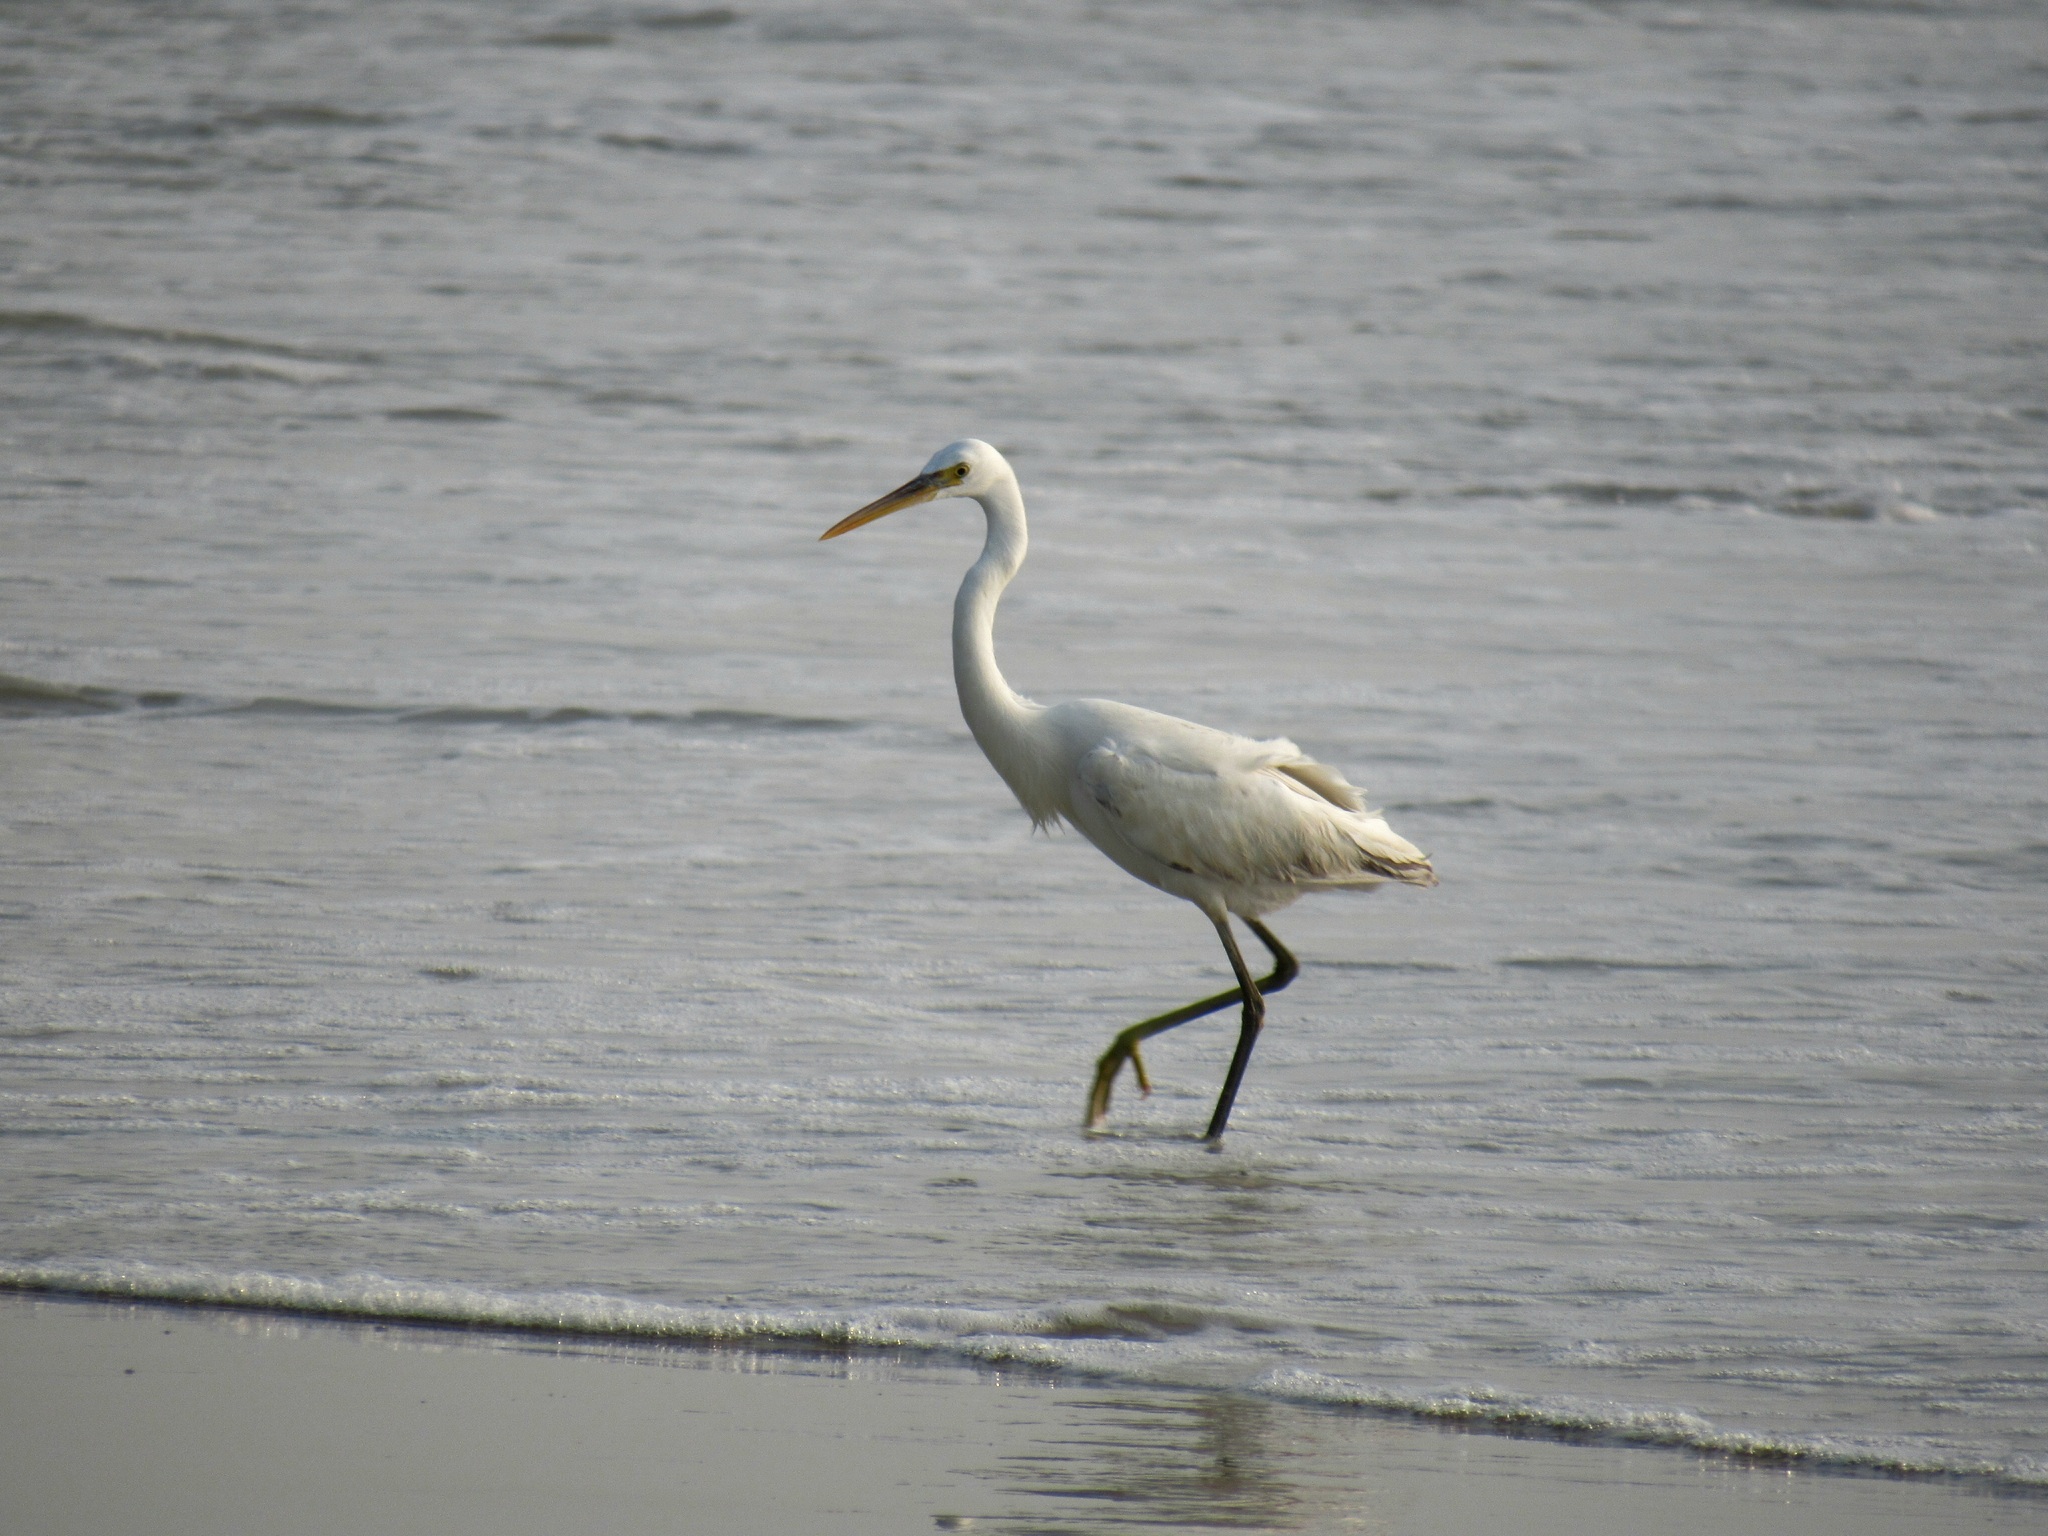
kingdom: Animalia
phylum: Chordata
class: Aves
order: Pelecaniformes
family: Ardeidae
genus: Egretta
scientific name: Egretta gularis
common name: Western reef-heron
